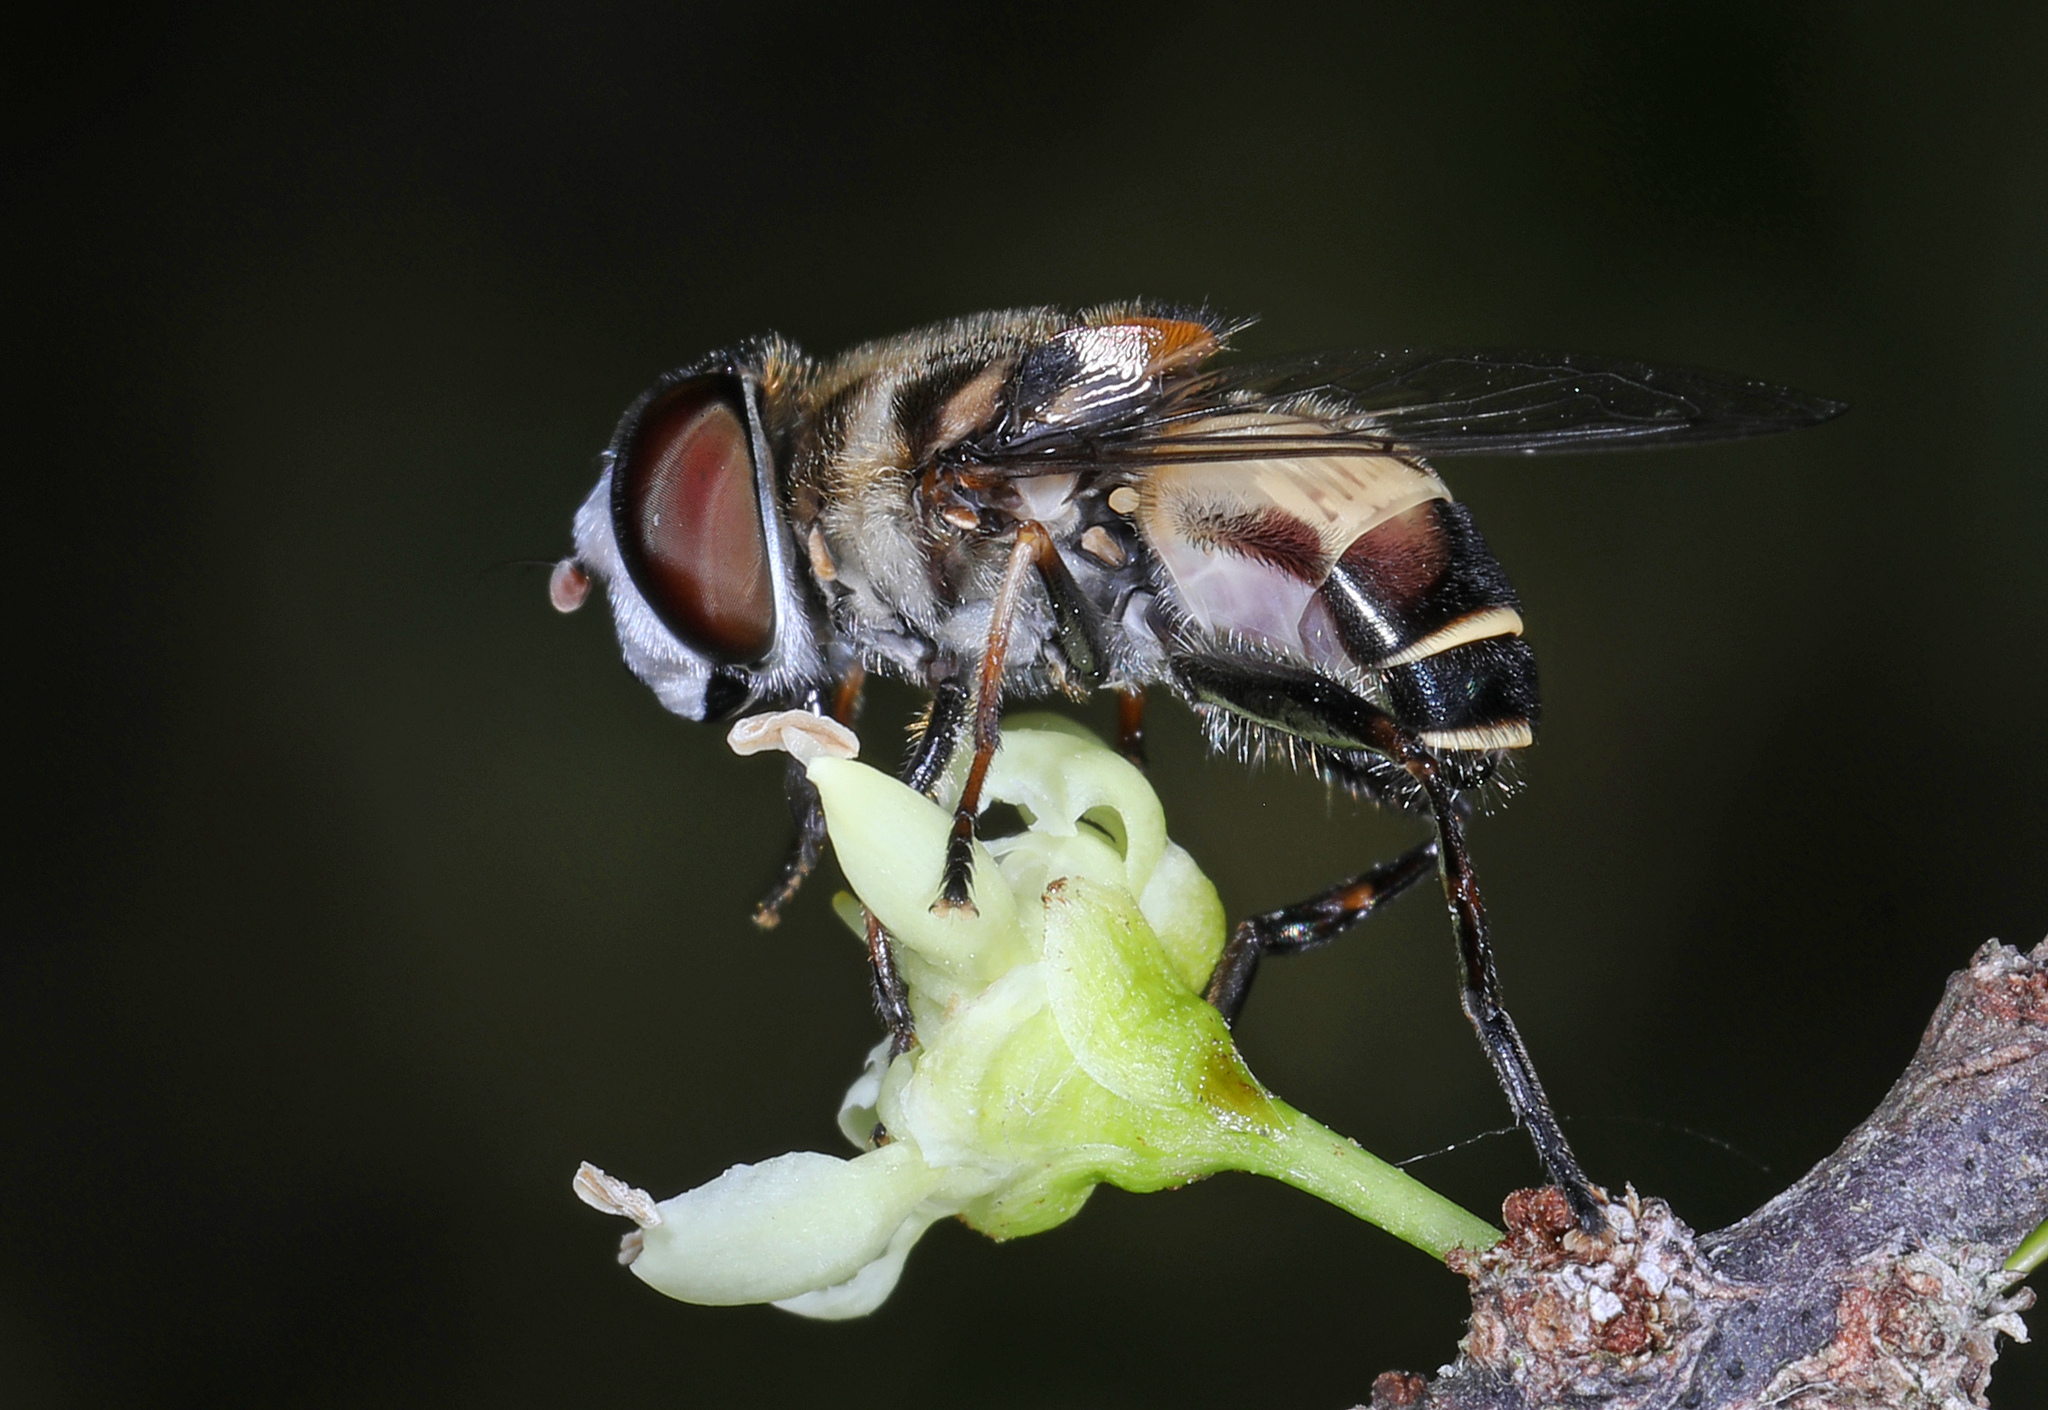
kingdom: Animalia
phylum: Arthropoda
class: Insecta
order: Diptera
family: Syrphidae
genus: Palpada
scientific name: Palpada albifrons
